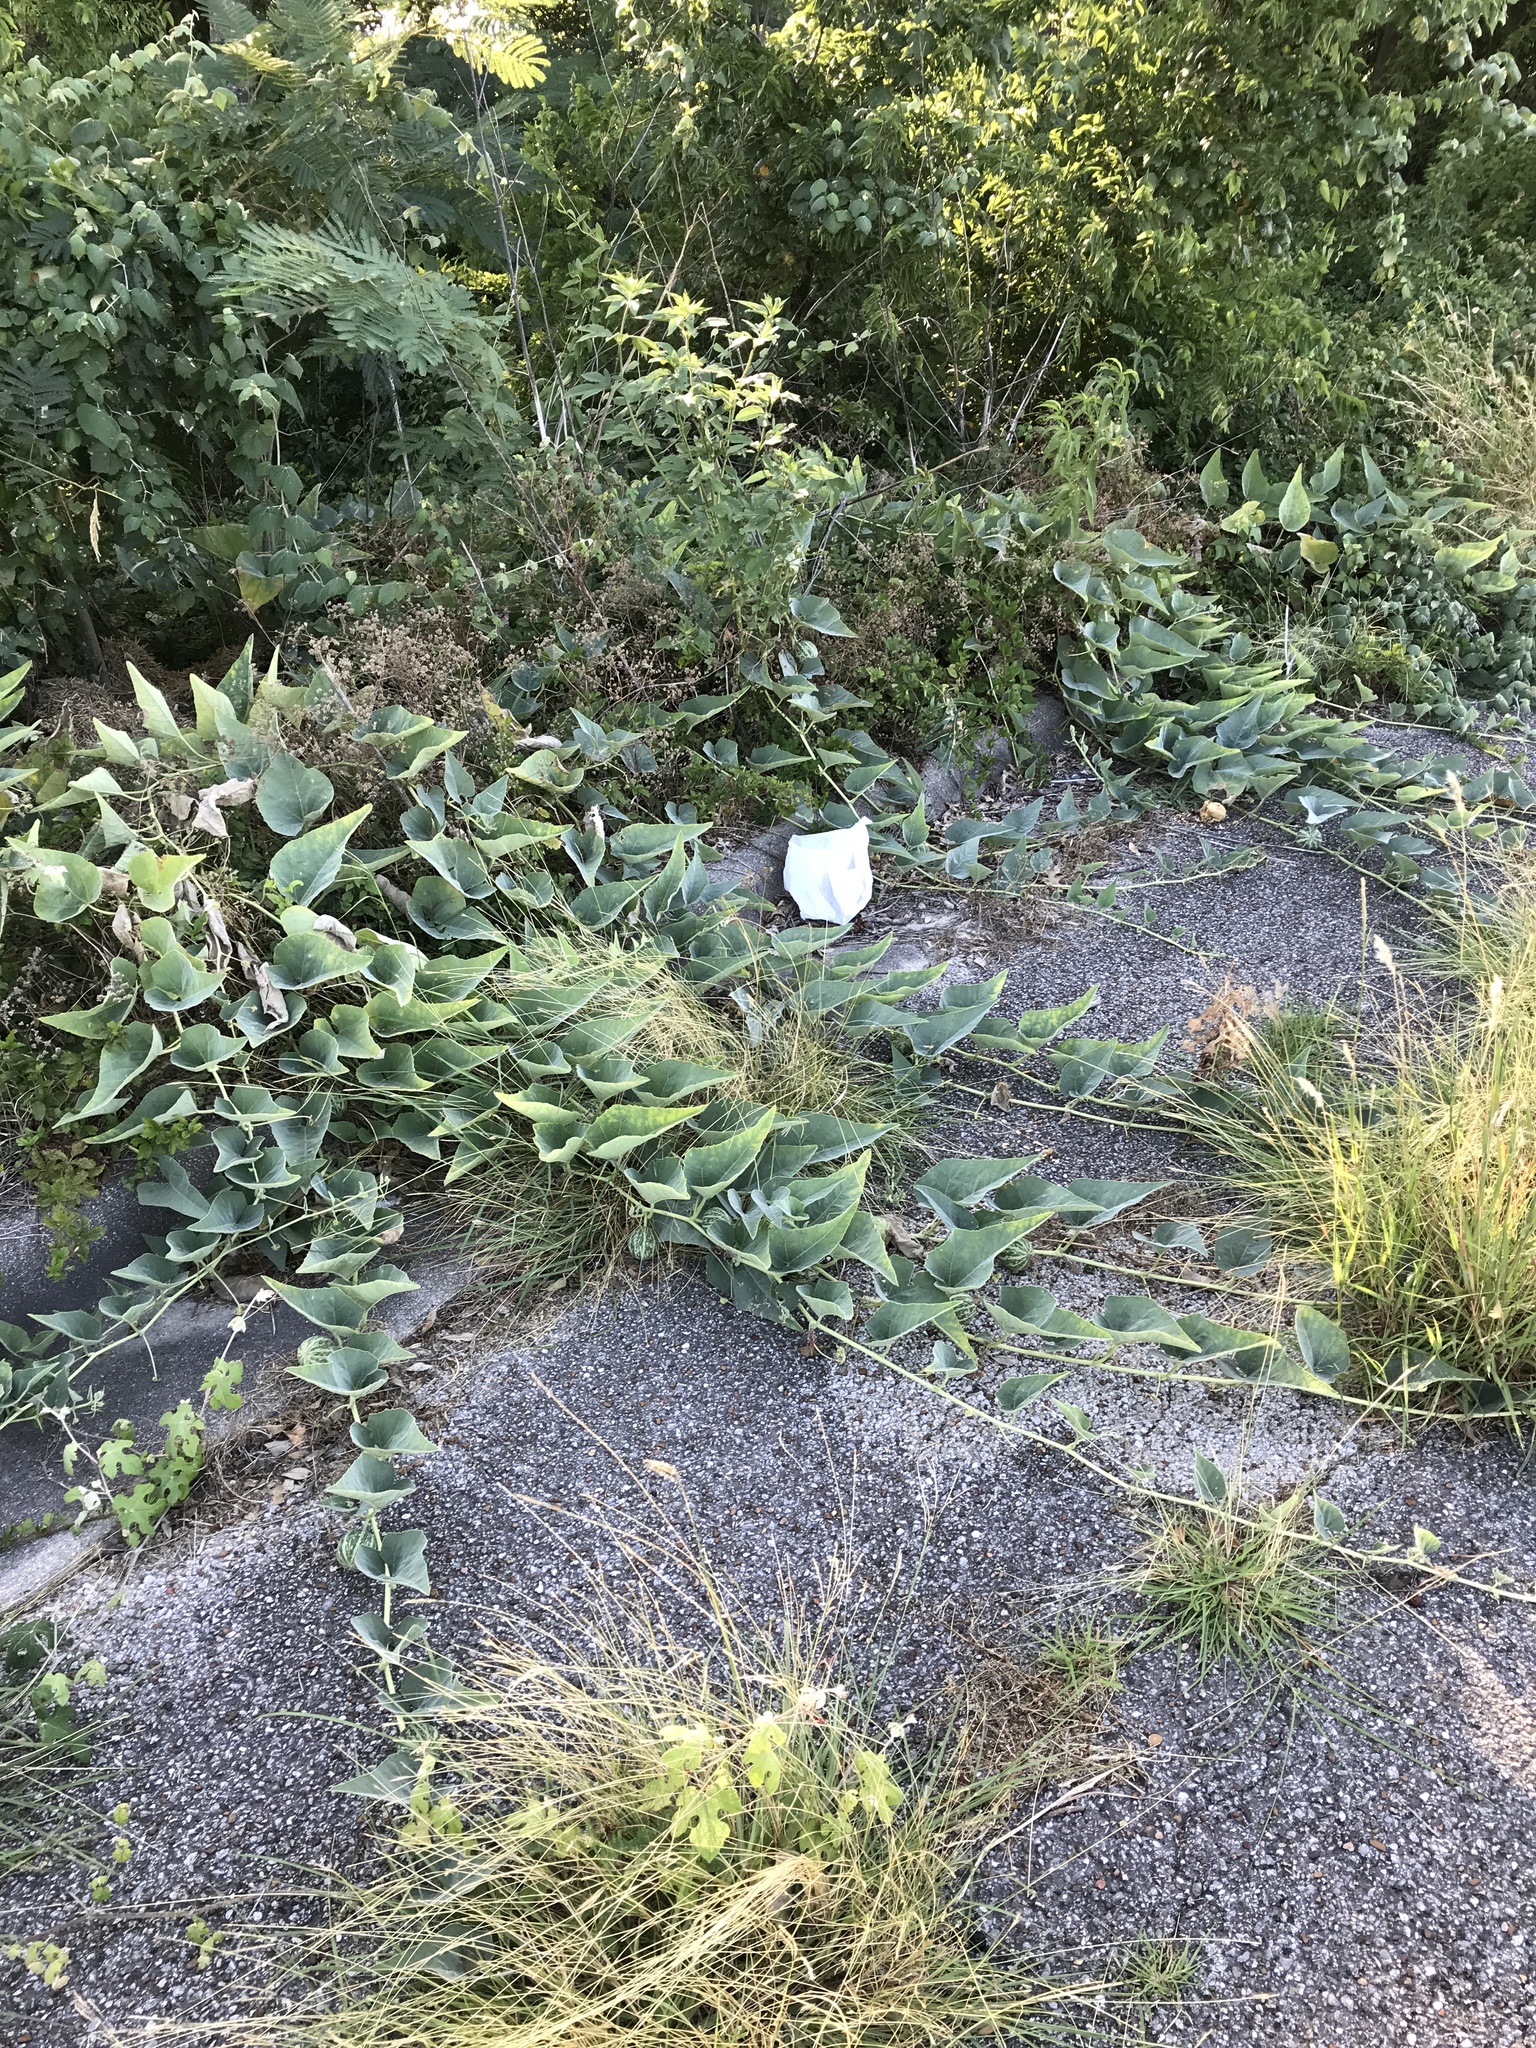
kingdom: Plantae
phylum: Tracheophyta
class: Magnoliopsida
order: Cucurbitales
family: Cucurbitaceae
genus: Cucurbita
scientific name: Cucurbita foetidissima
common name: Buffalo gourd
